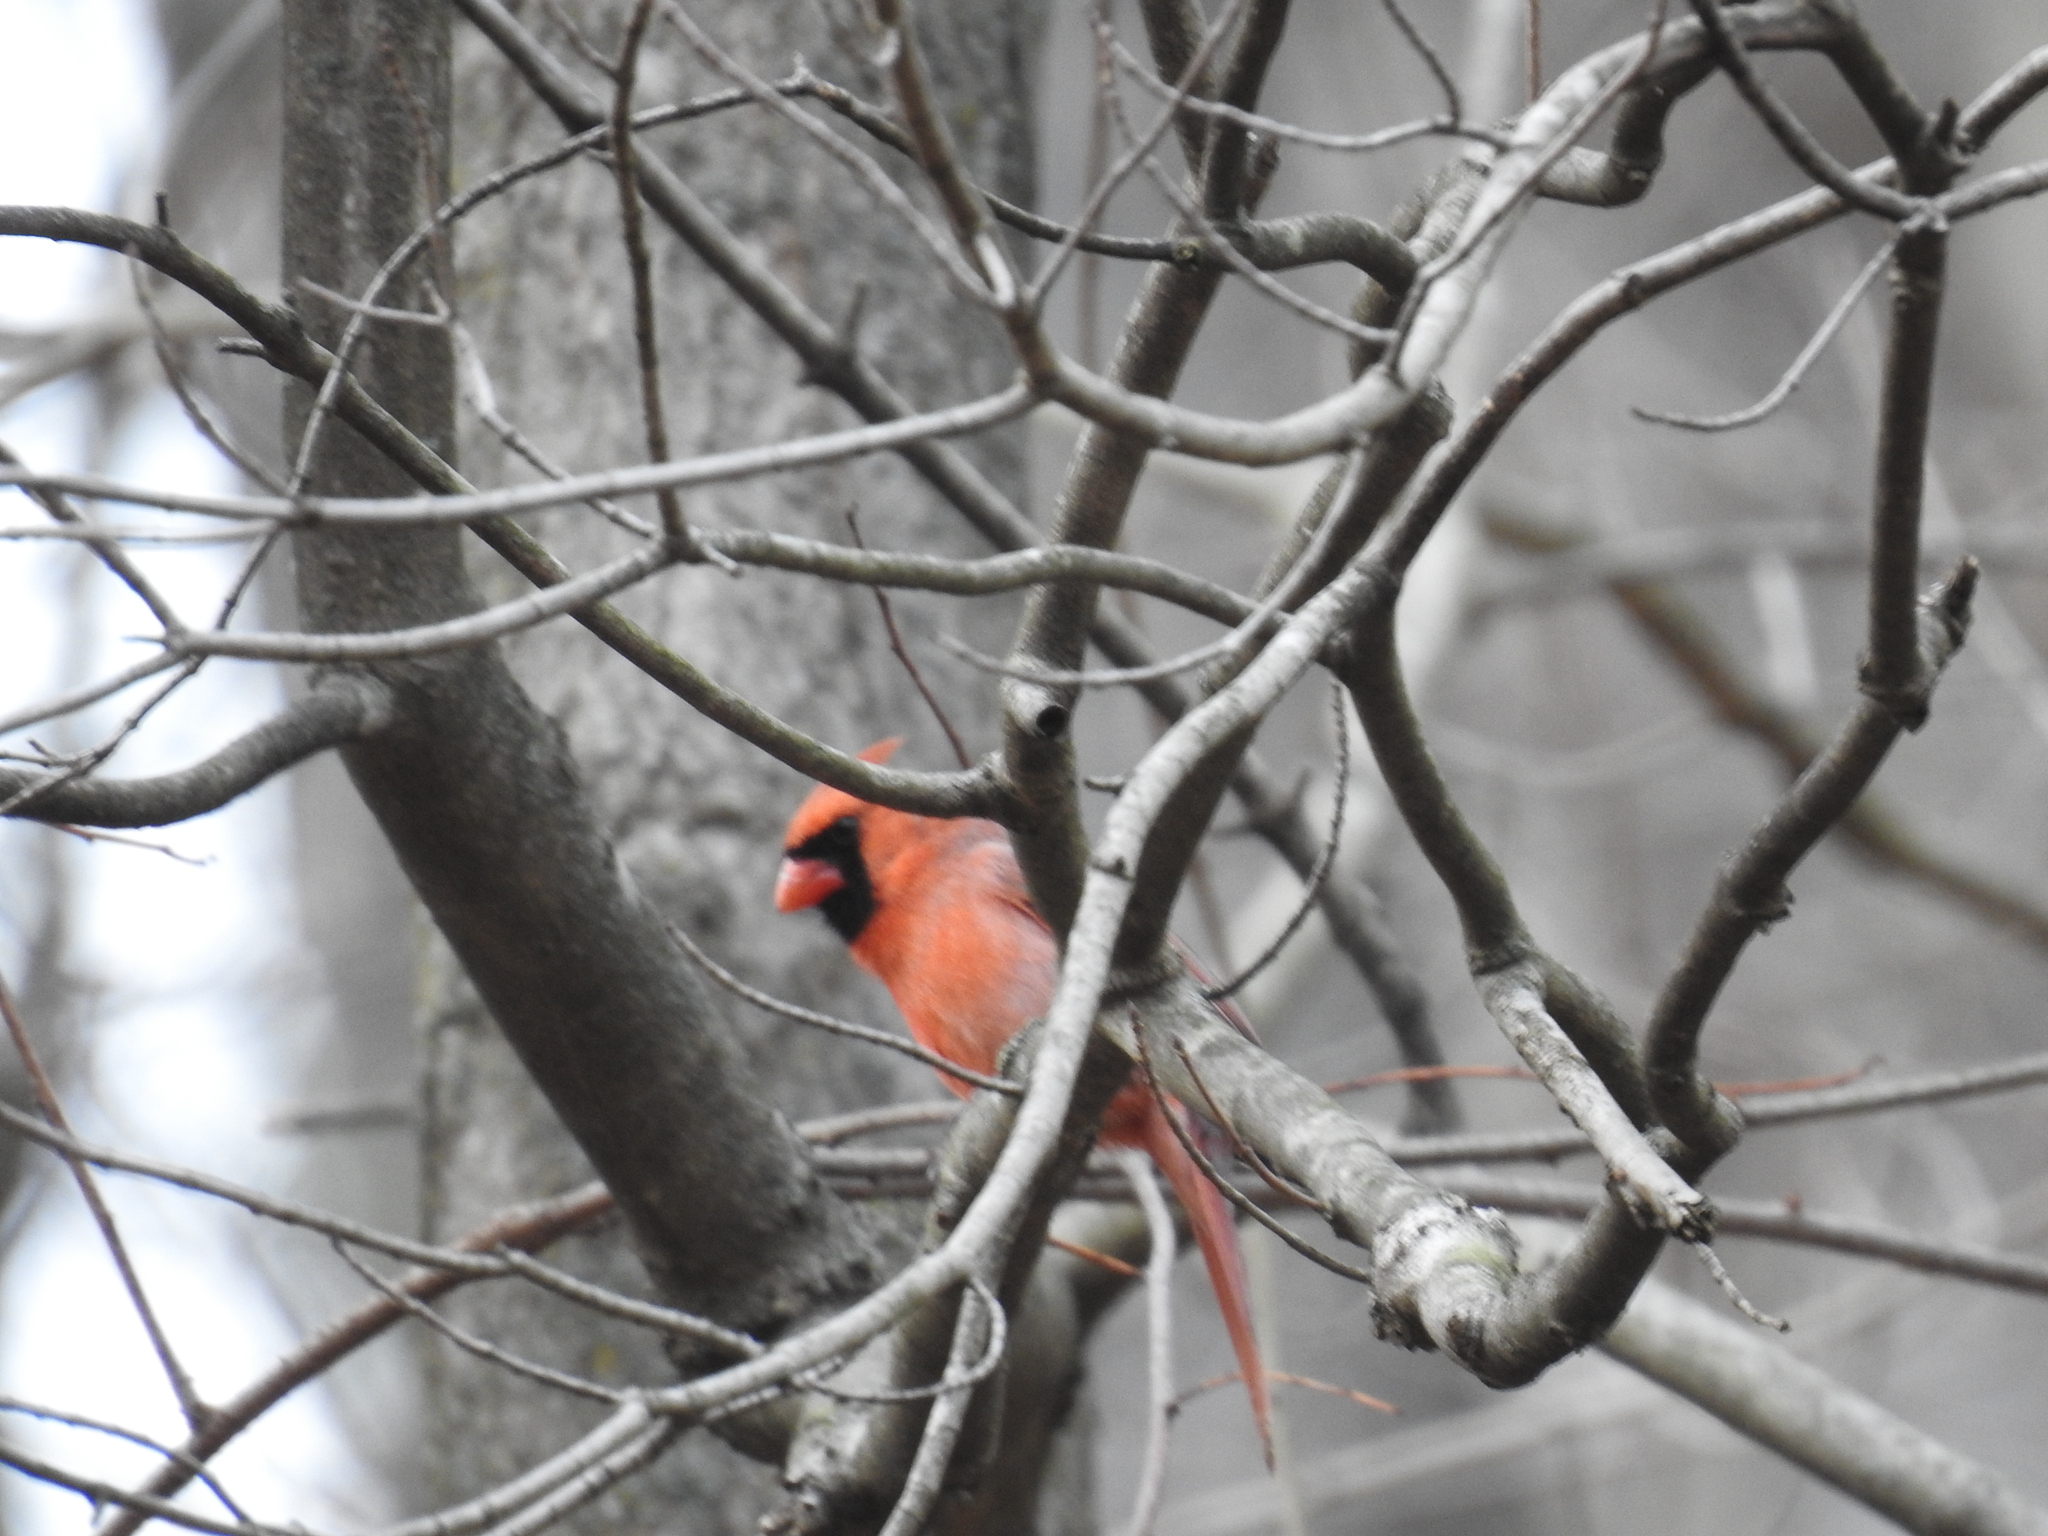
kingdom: Animalia
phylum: Chordata
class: Aves
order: Passeriformes
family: Cardinalidae
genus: Cardinalis
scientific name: Cardinalis cardinalis
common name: Northern cardinal
